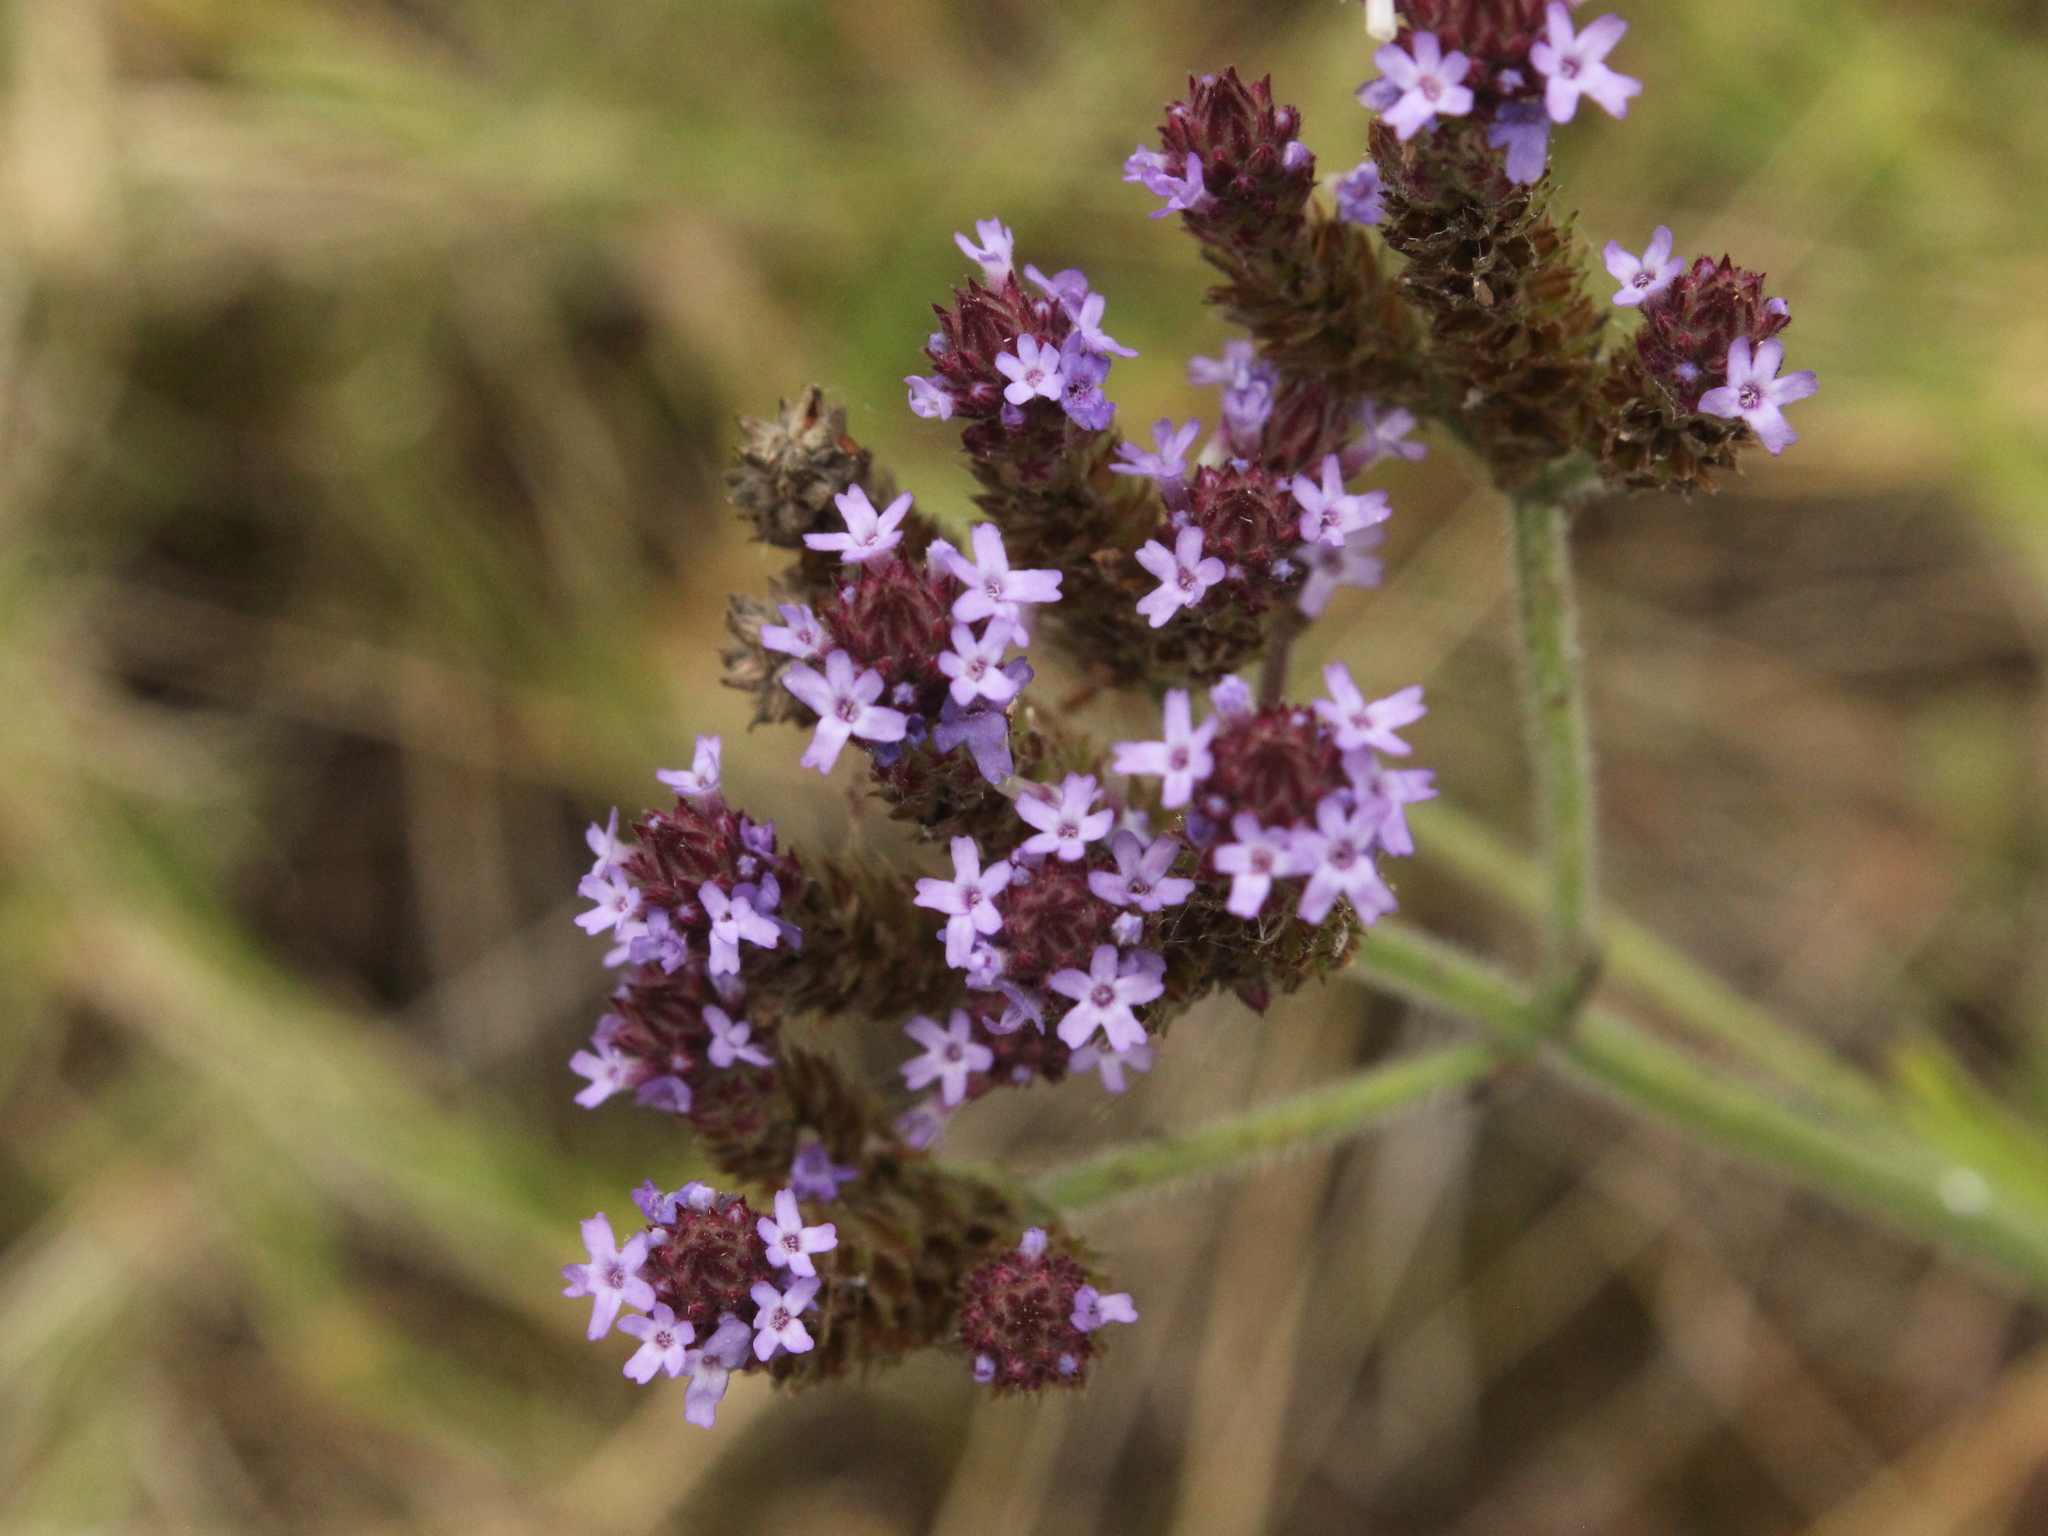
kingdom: Plantae
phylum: Tracheophyta
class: Magnoliopsida
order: Lamiales
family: Verbenaceae
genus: Verbena
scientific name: Verbena incompta
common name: Purpletop vervain
